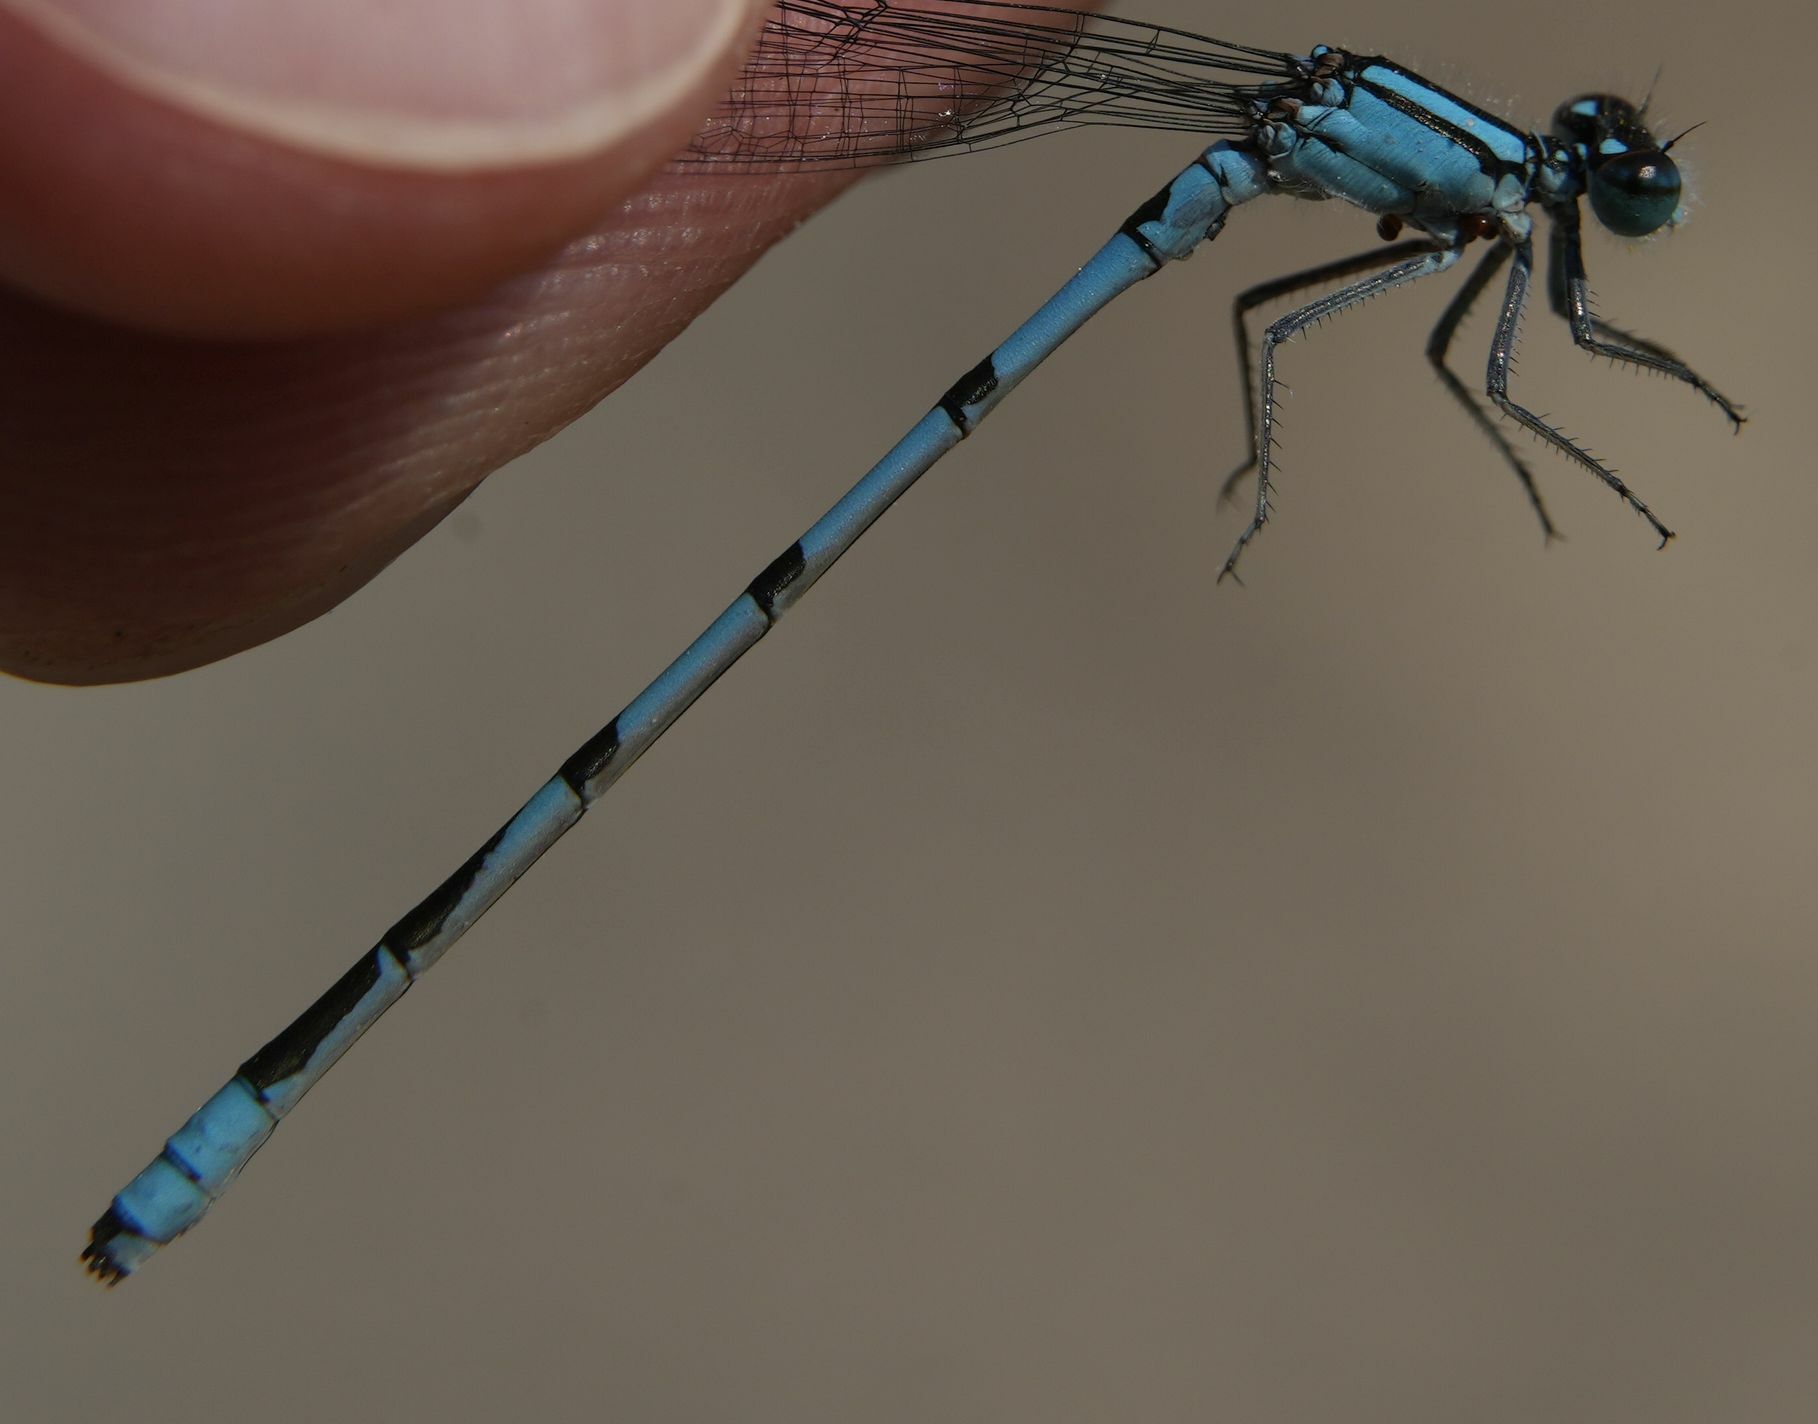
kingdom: Animalia
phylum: Arthropoda
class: Insecta
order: Odonata
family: Coenagrionidae
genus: Enallagma
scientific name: Enallagma ebrium
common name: Marsh bluet
